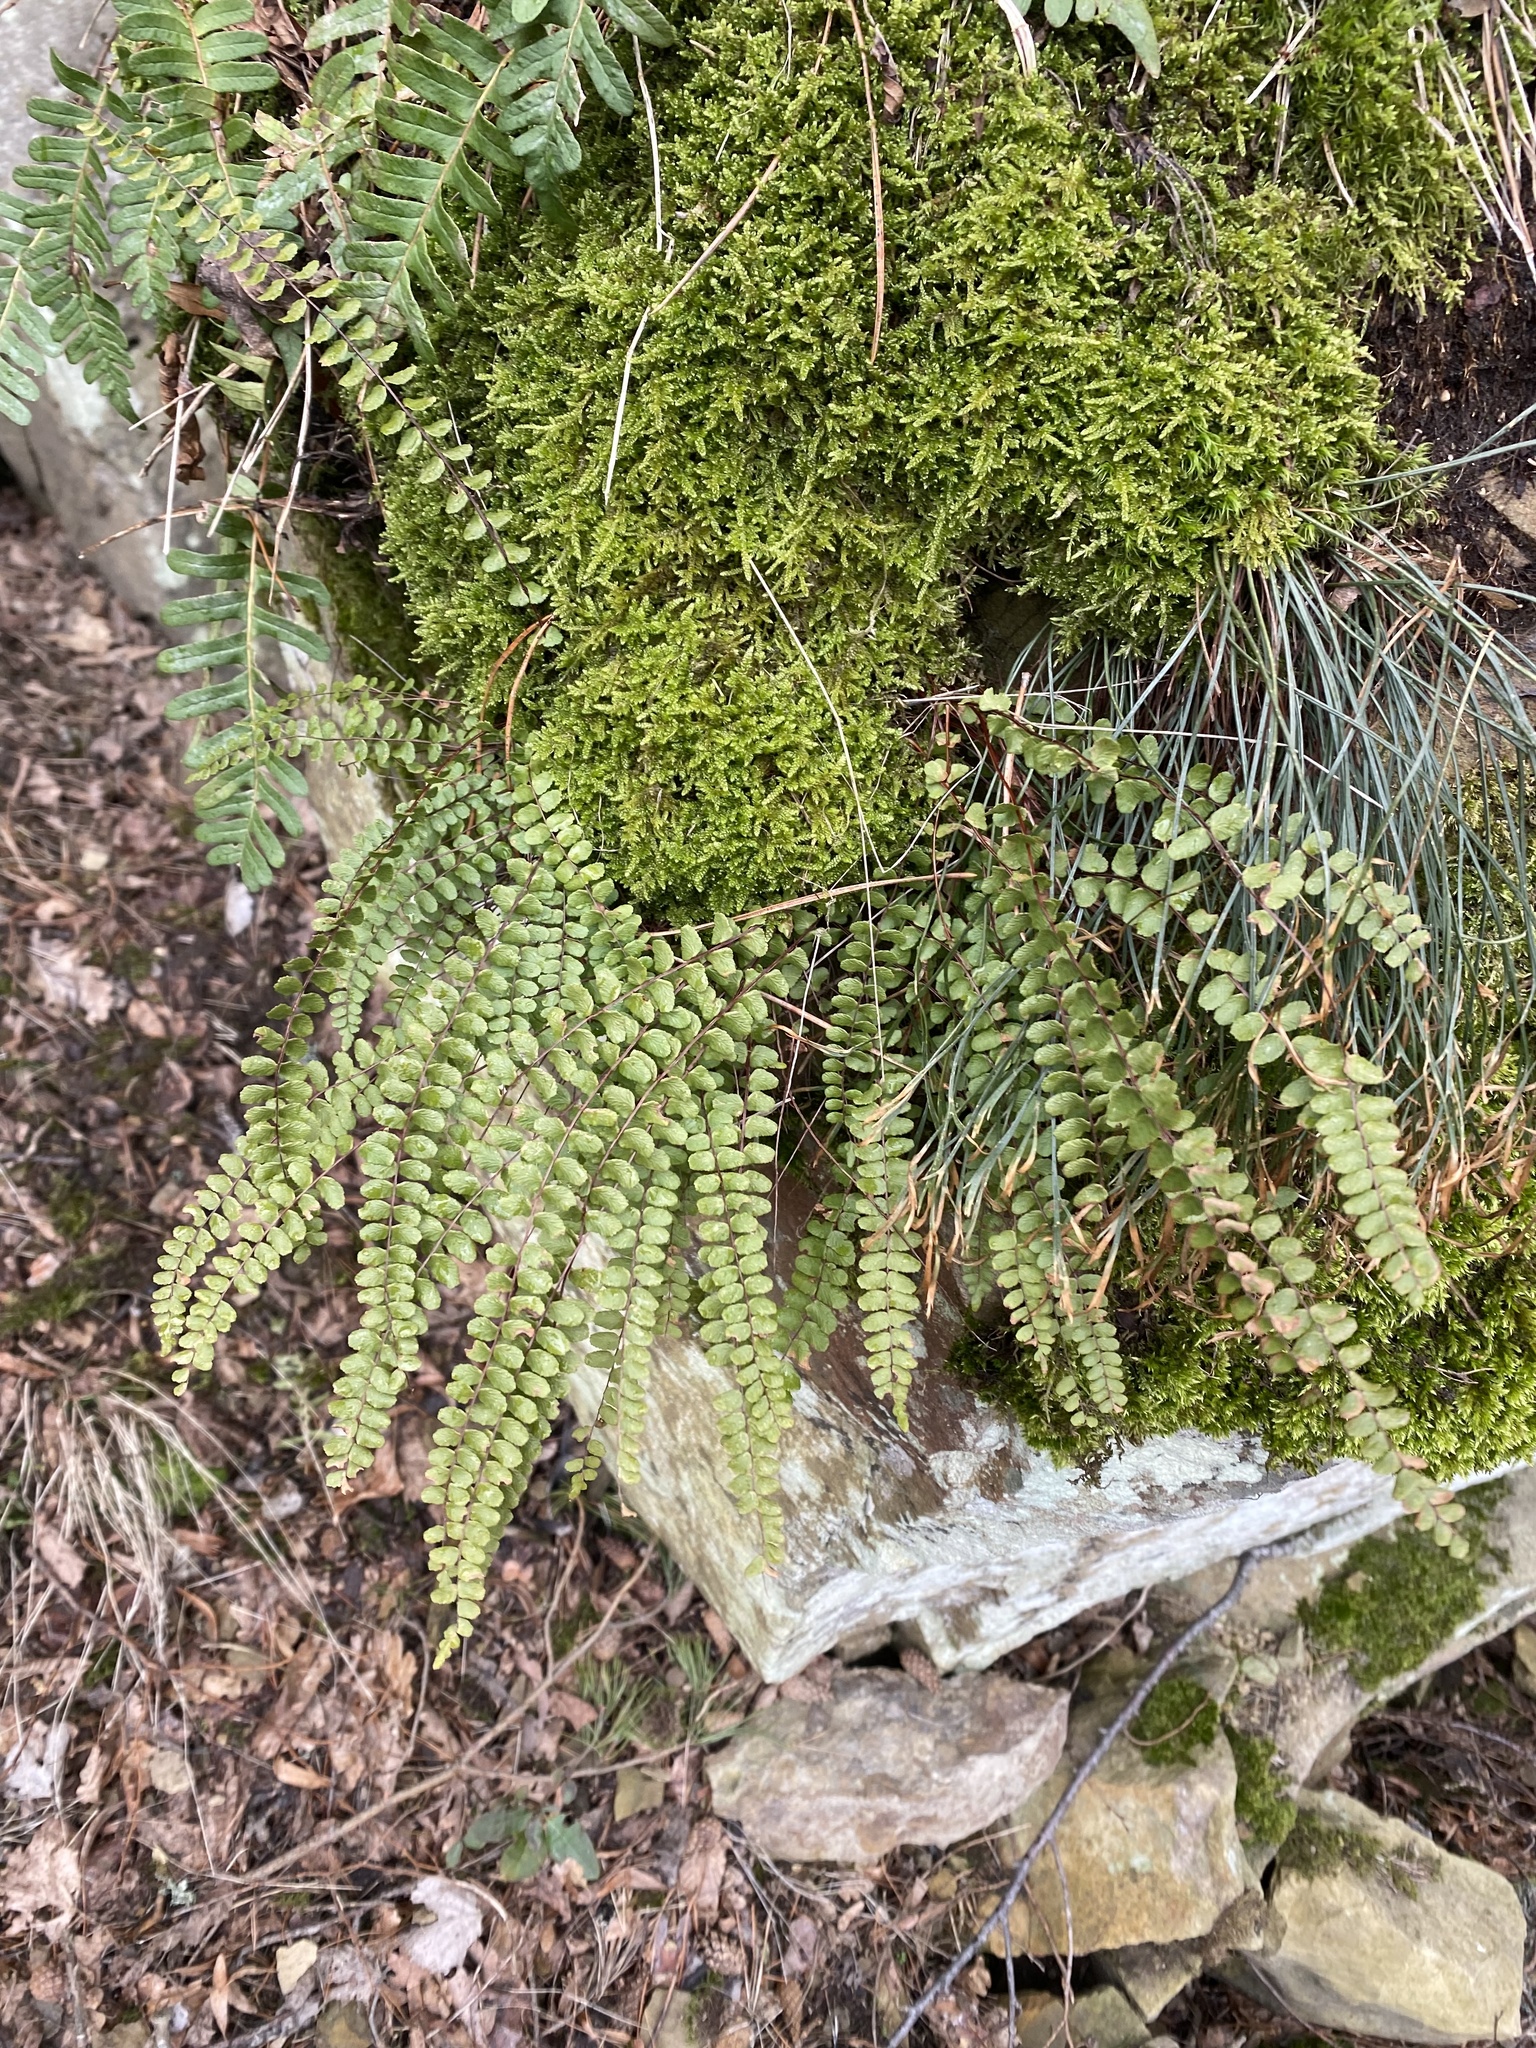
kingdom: Plantae
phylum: Tracheophyta
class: Polypodiopsida
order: Polypodiales
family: Aspleniaceae
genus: Asplenium
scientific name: Asplenium trichomanes
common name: Maidenhair spleenwort
